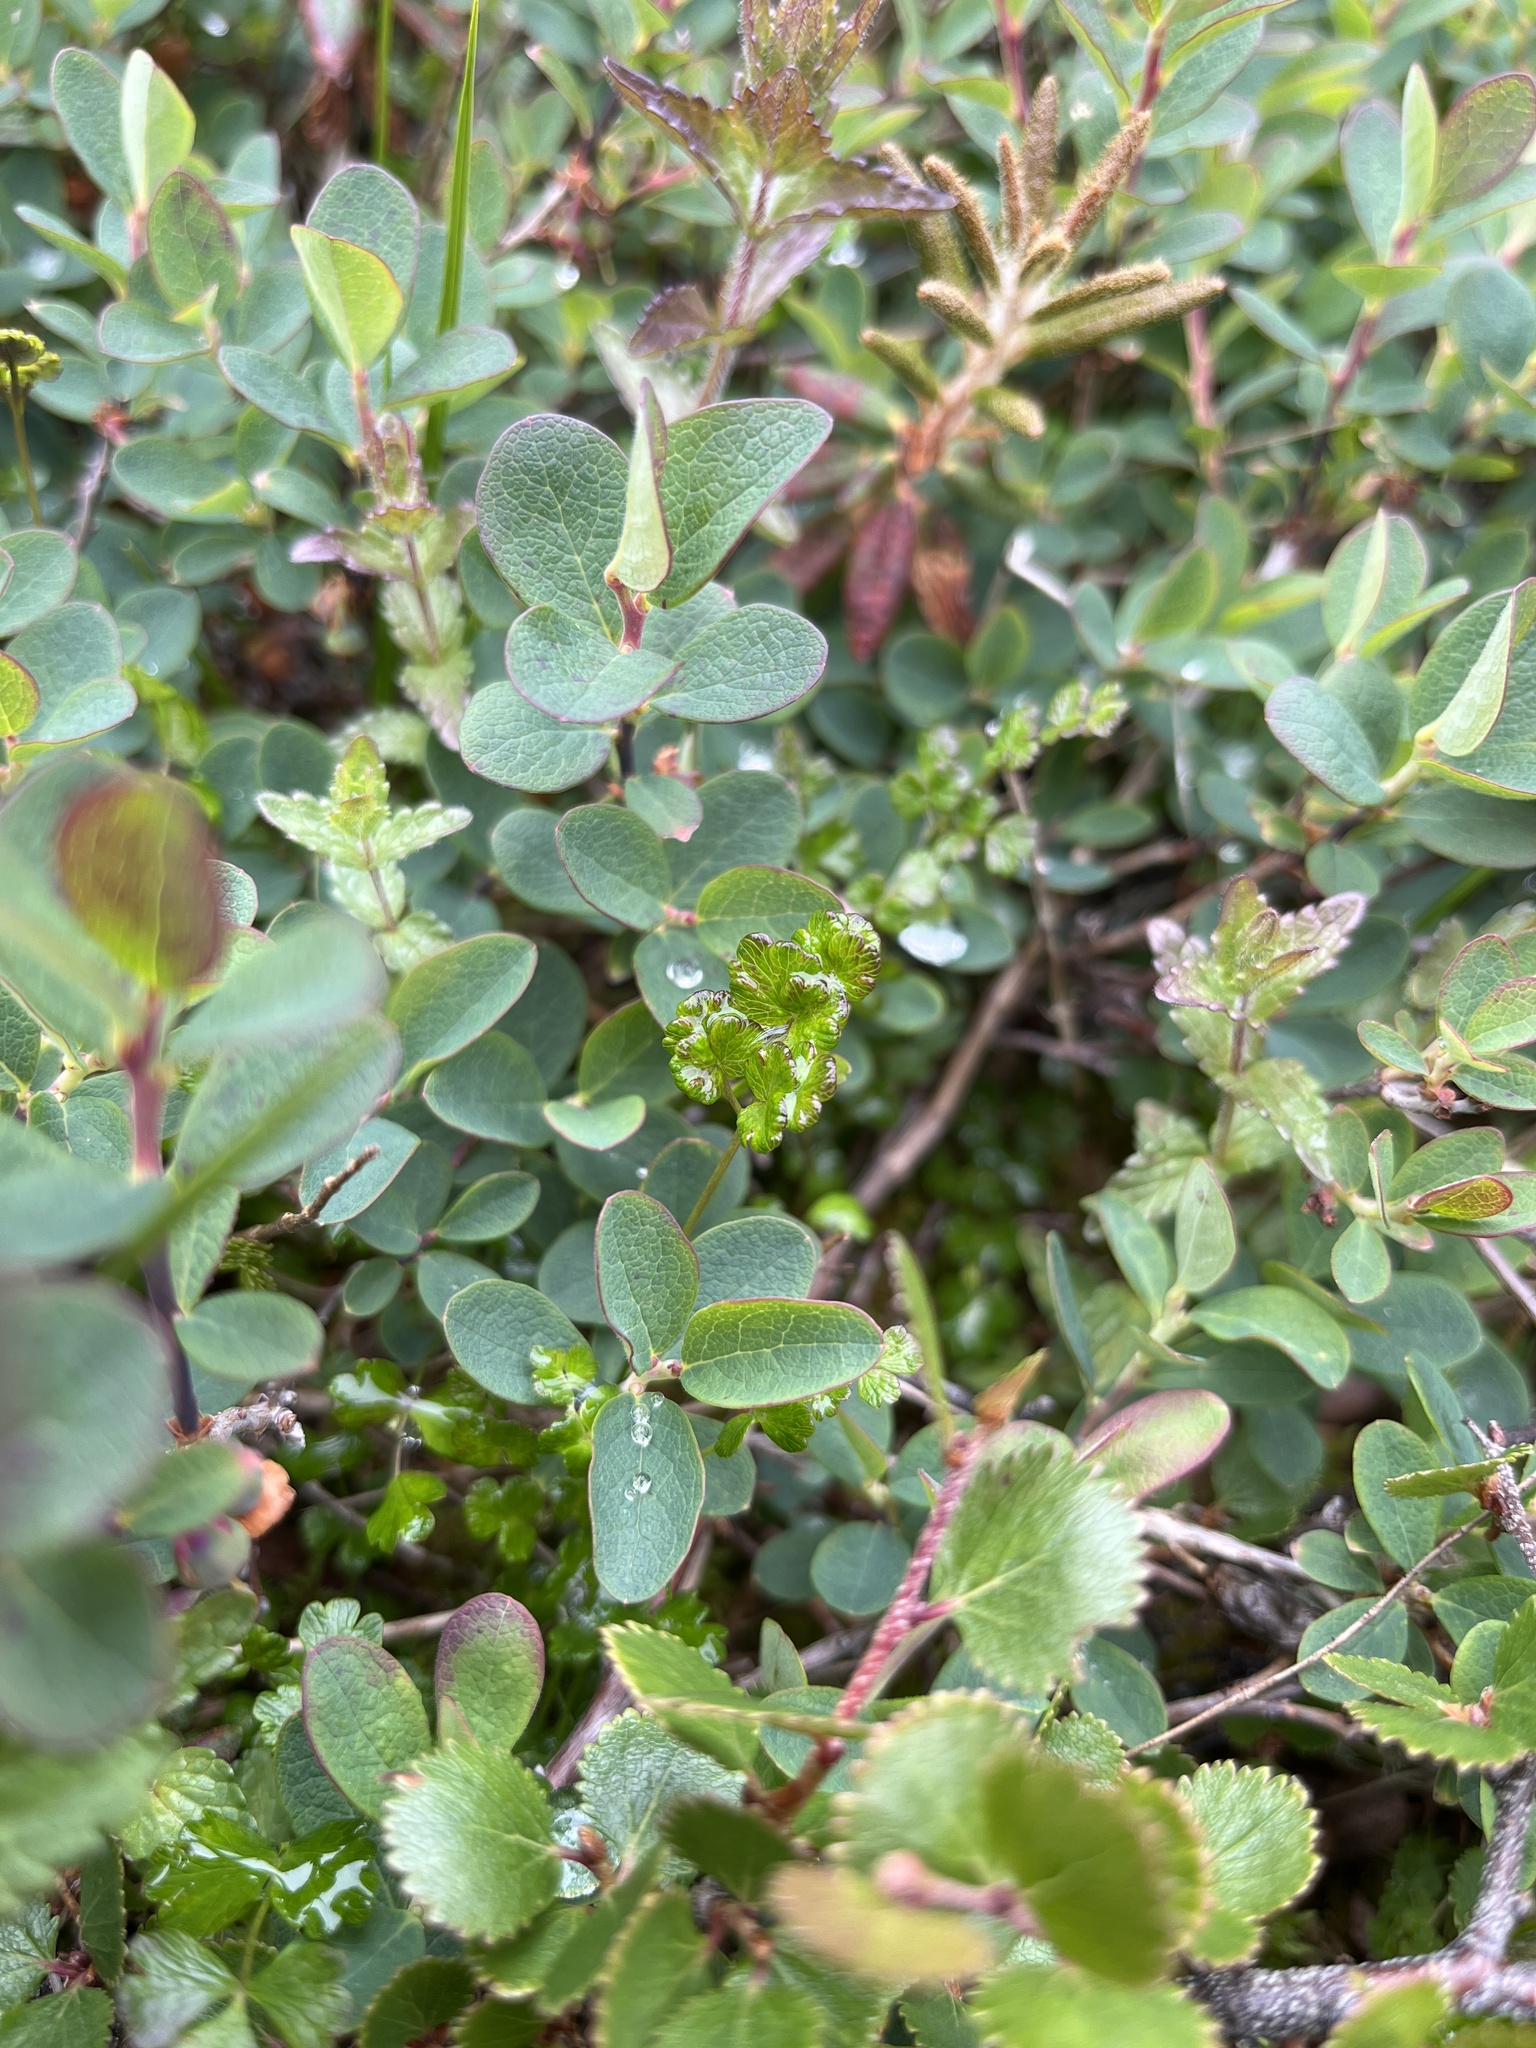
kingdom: Plantae
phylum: Tracheophyta
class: Magnoliopsida
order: Ranunculales
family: Ranunculaceae
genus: Thalictrum
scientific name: Thalictrum alpinum
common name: Alpine meadow-rue
